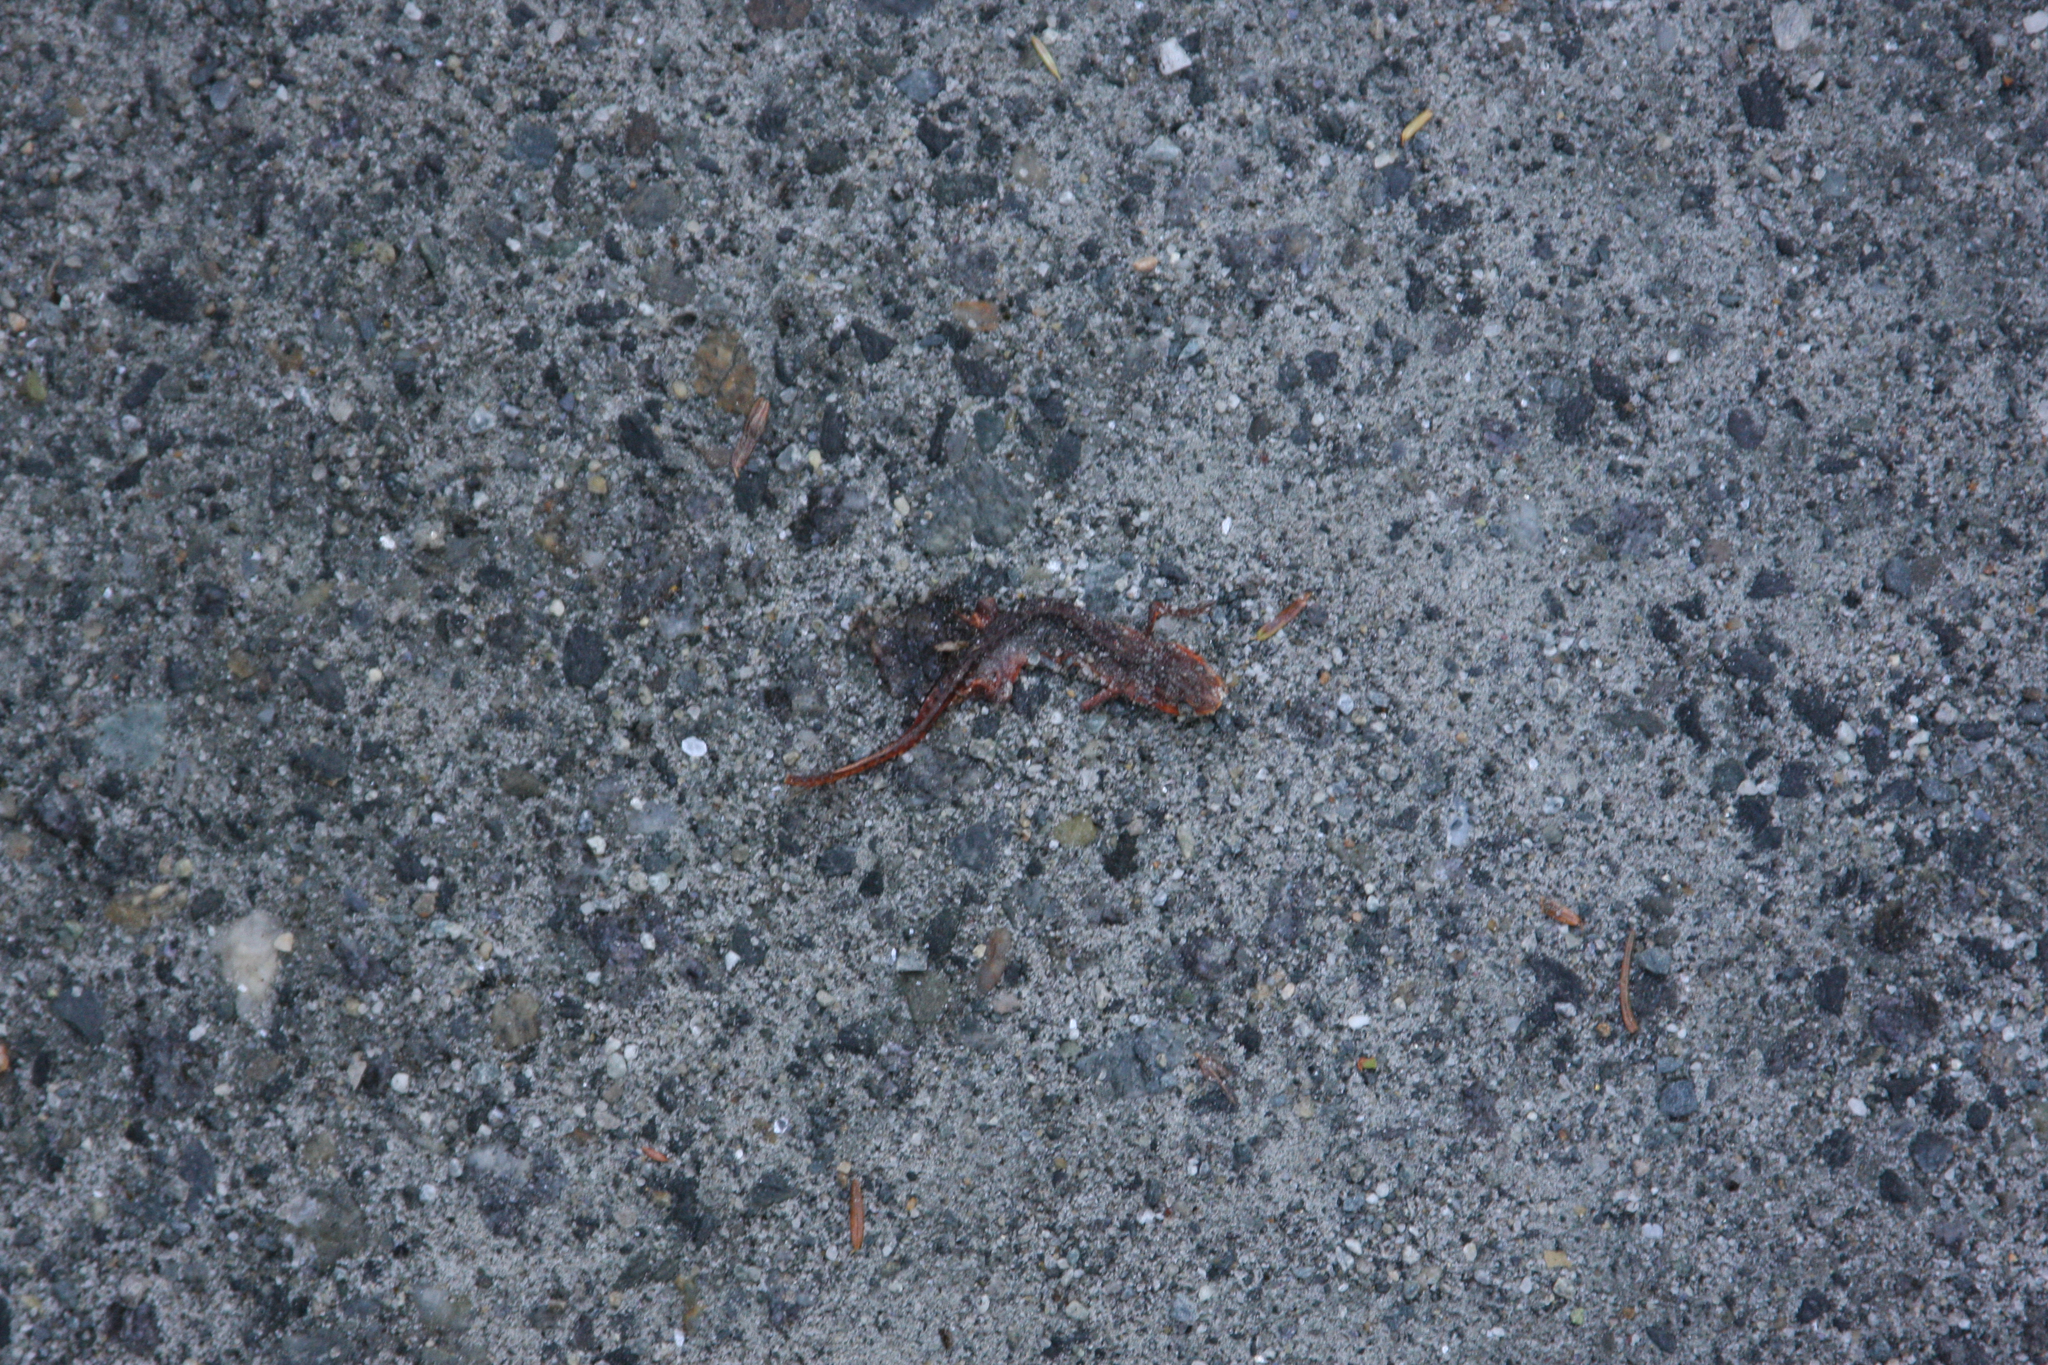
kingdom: Animalia
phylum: Chordata
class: Amphibia
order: Caudata
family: Salamandridae
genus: Notophthalmus
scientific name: Notophthalmus viridescens
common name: Eastern newt
